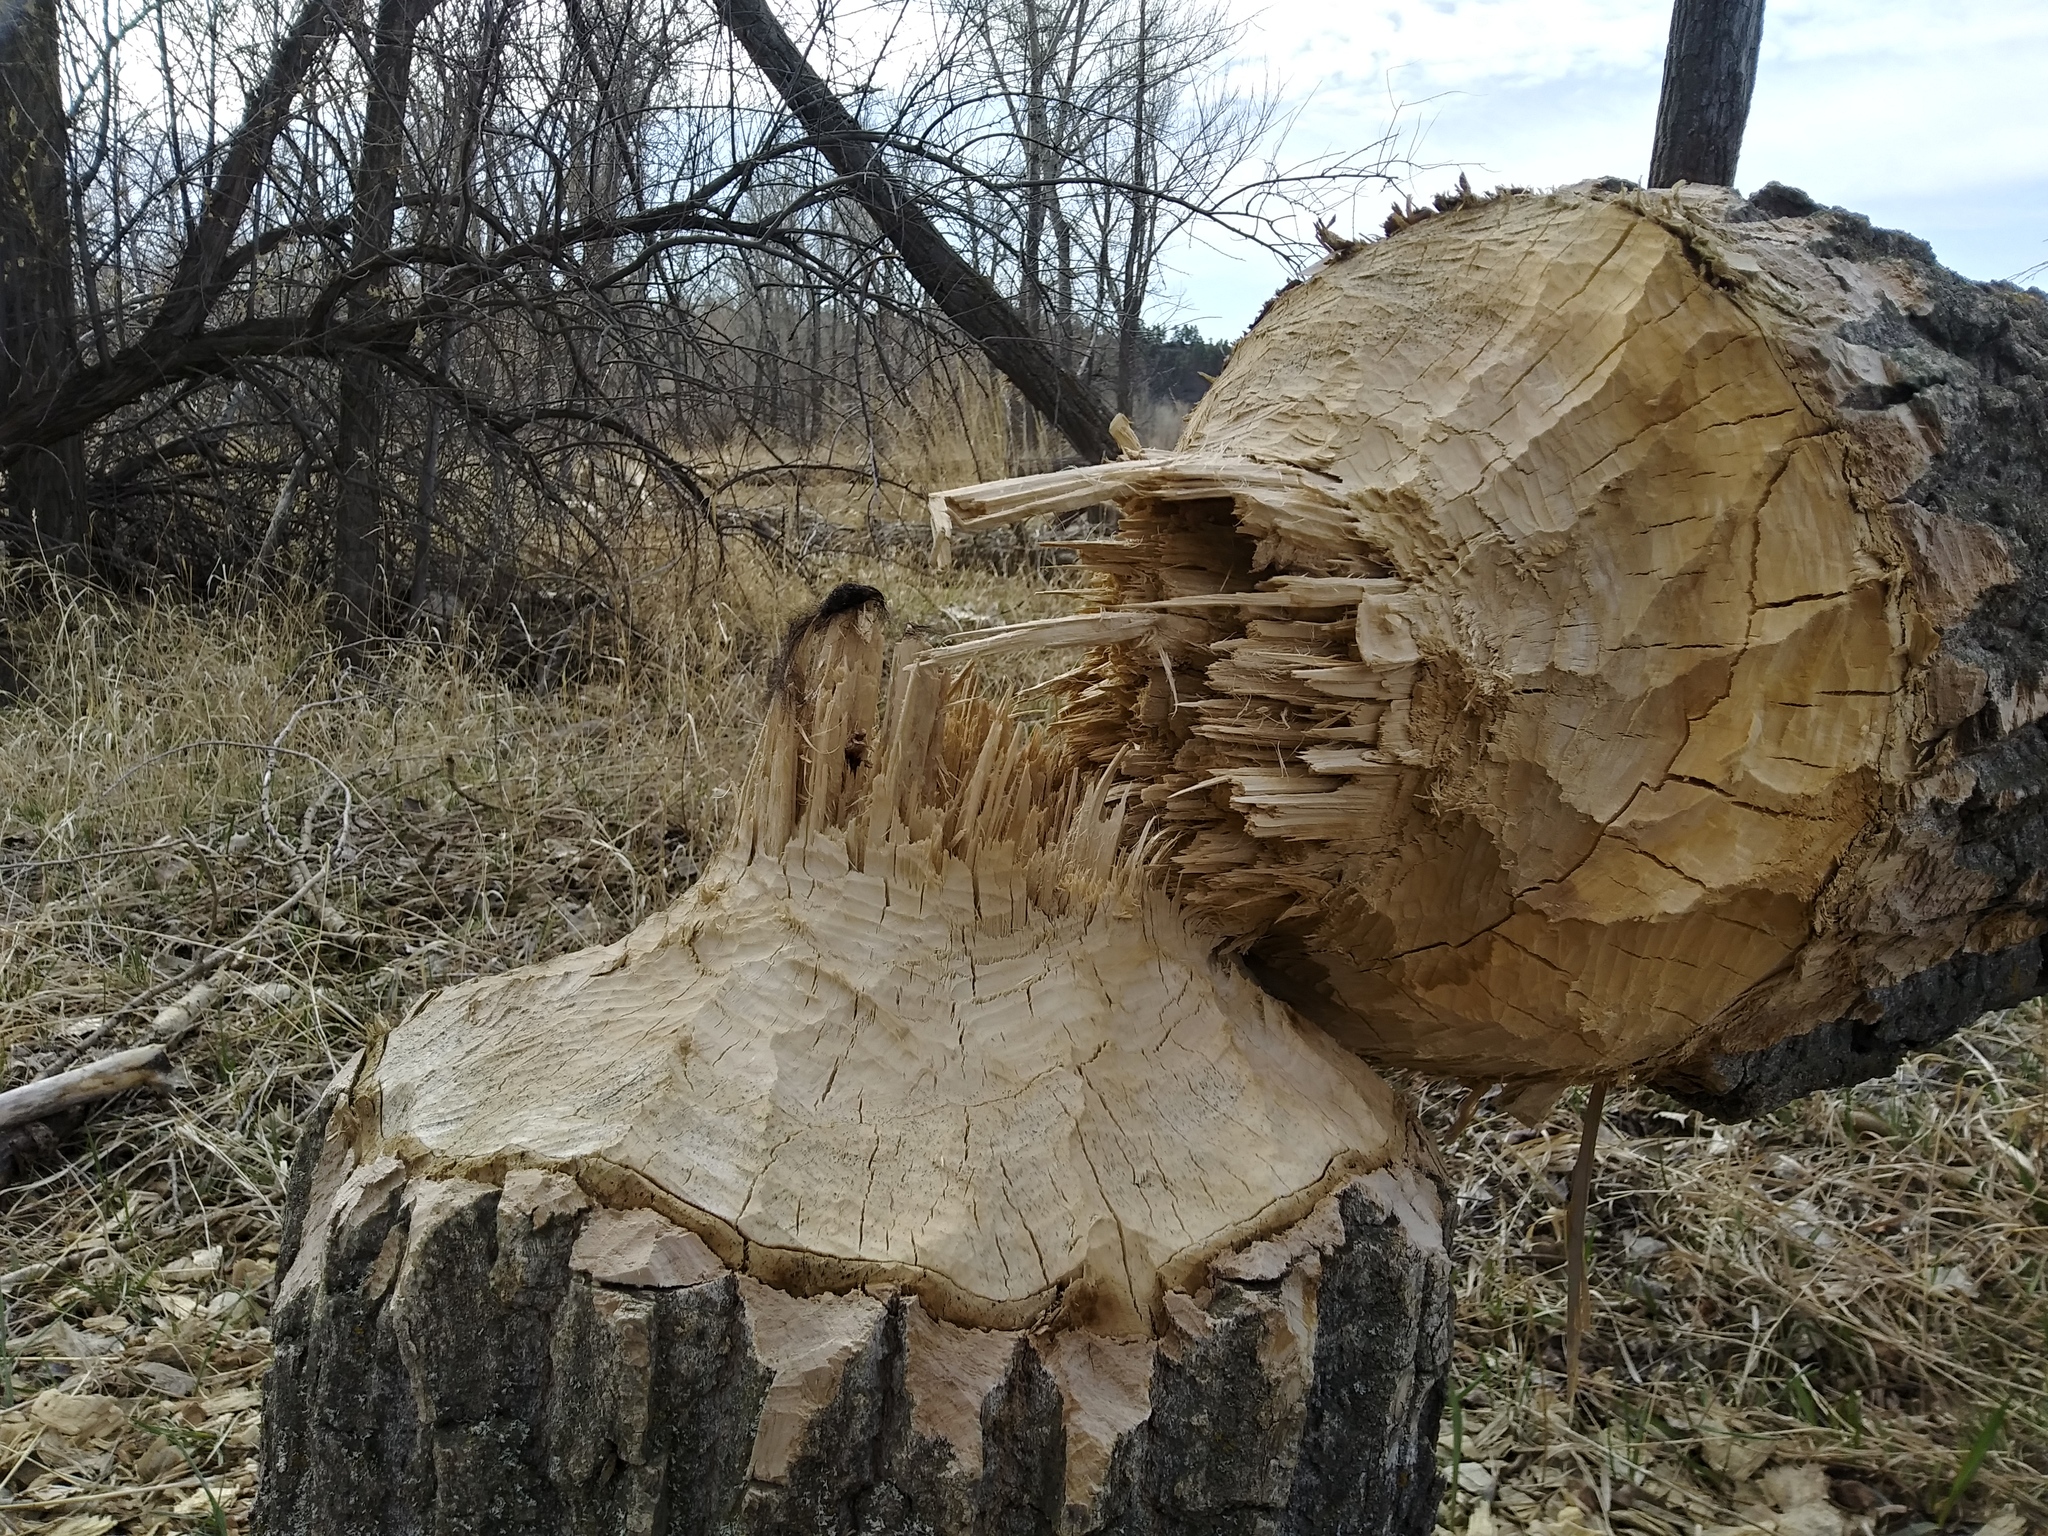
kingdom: Animalia
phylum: Chordata
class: Mammalia
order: Rodentia
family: Castoridae
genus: Castor
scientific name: Castor canadensis
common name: American beaver
